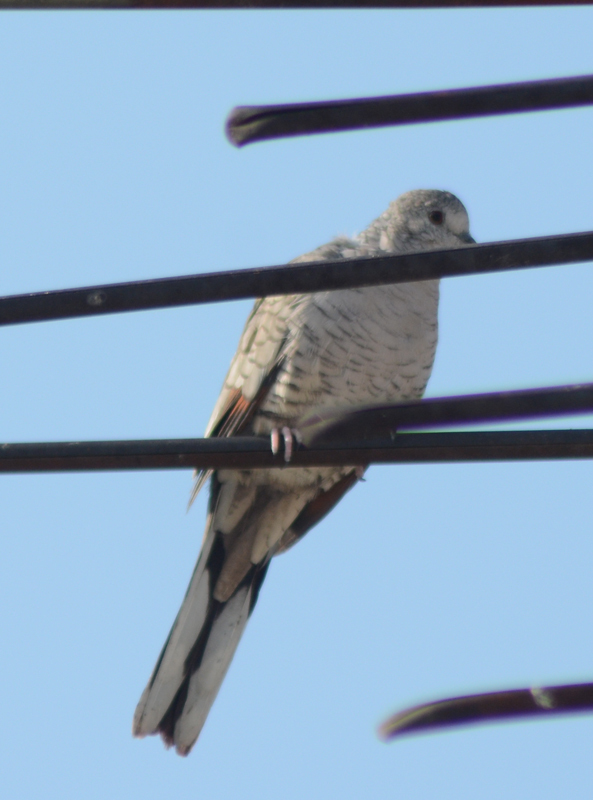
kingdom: Animalia
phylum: Chordata
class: Aves
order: Columbiformes
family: Columbidae
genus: Columbina
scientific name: Columbina inca
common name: Inca dove
